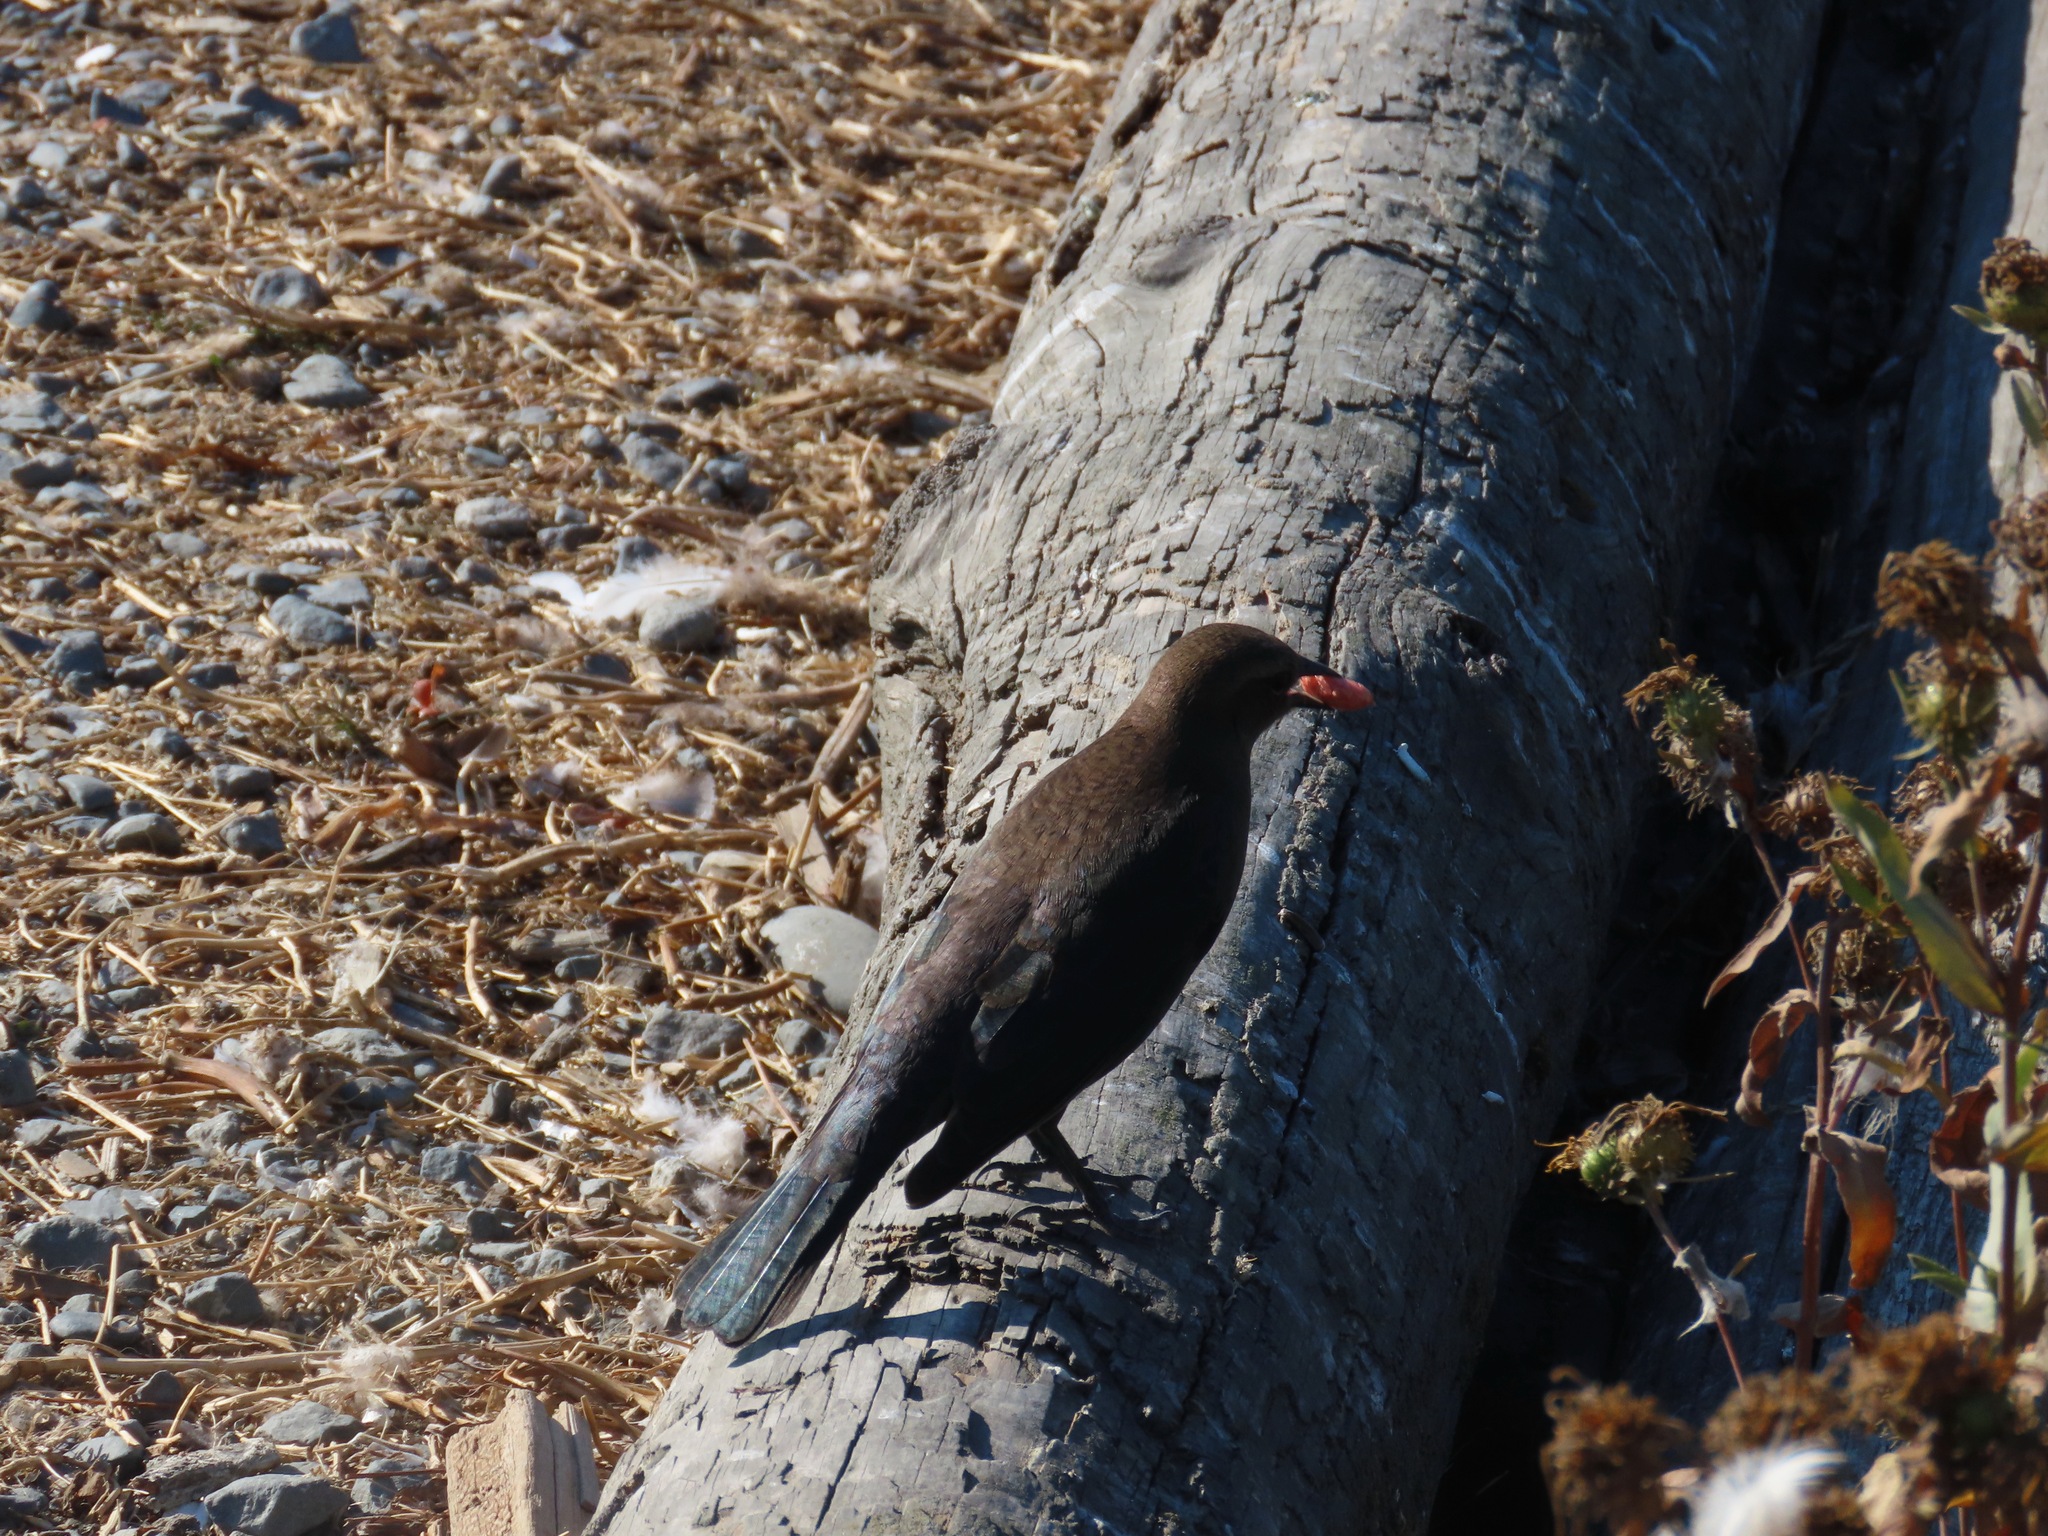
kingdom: Animalia
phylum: Chordata
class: Aves
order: Passeriformes
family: Icteridae
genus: Euphagus
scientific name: Euphagus cyanocephalus
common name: Brewer's blackbird
